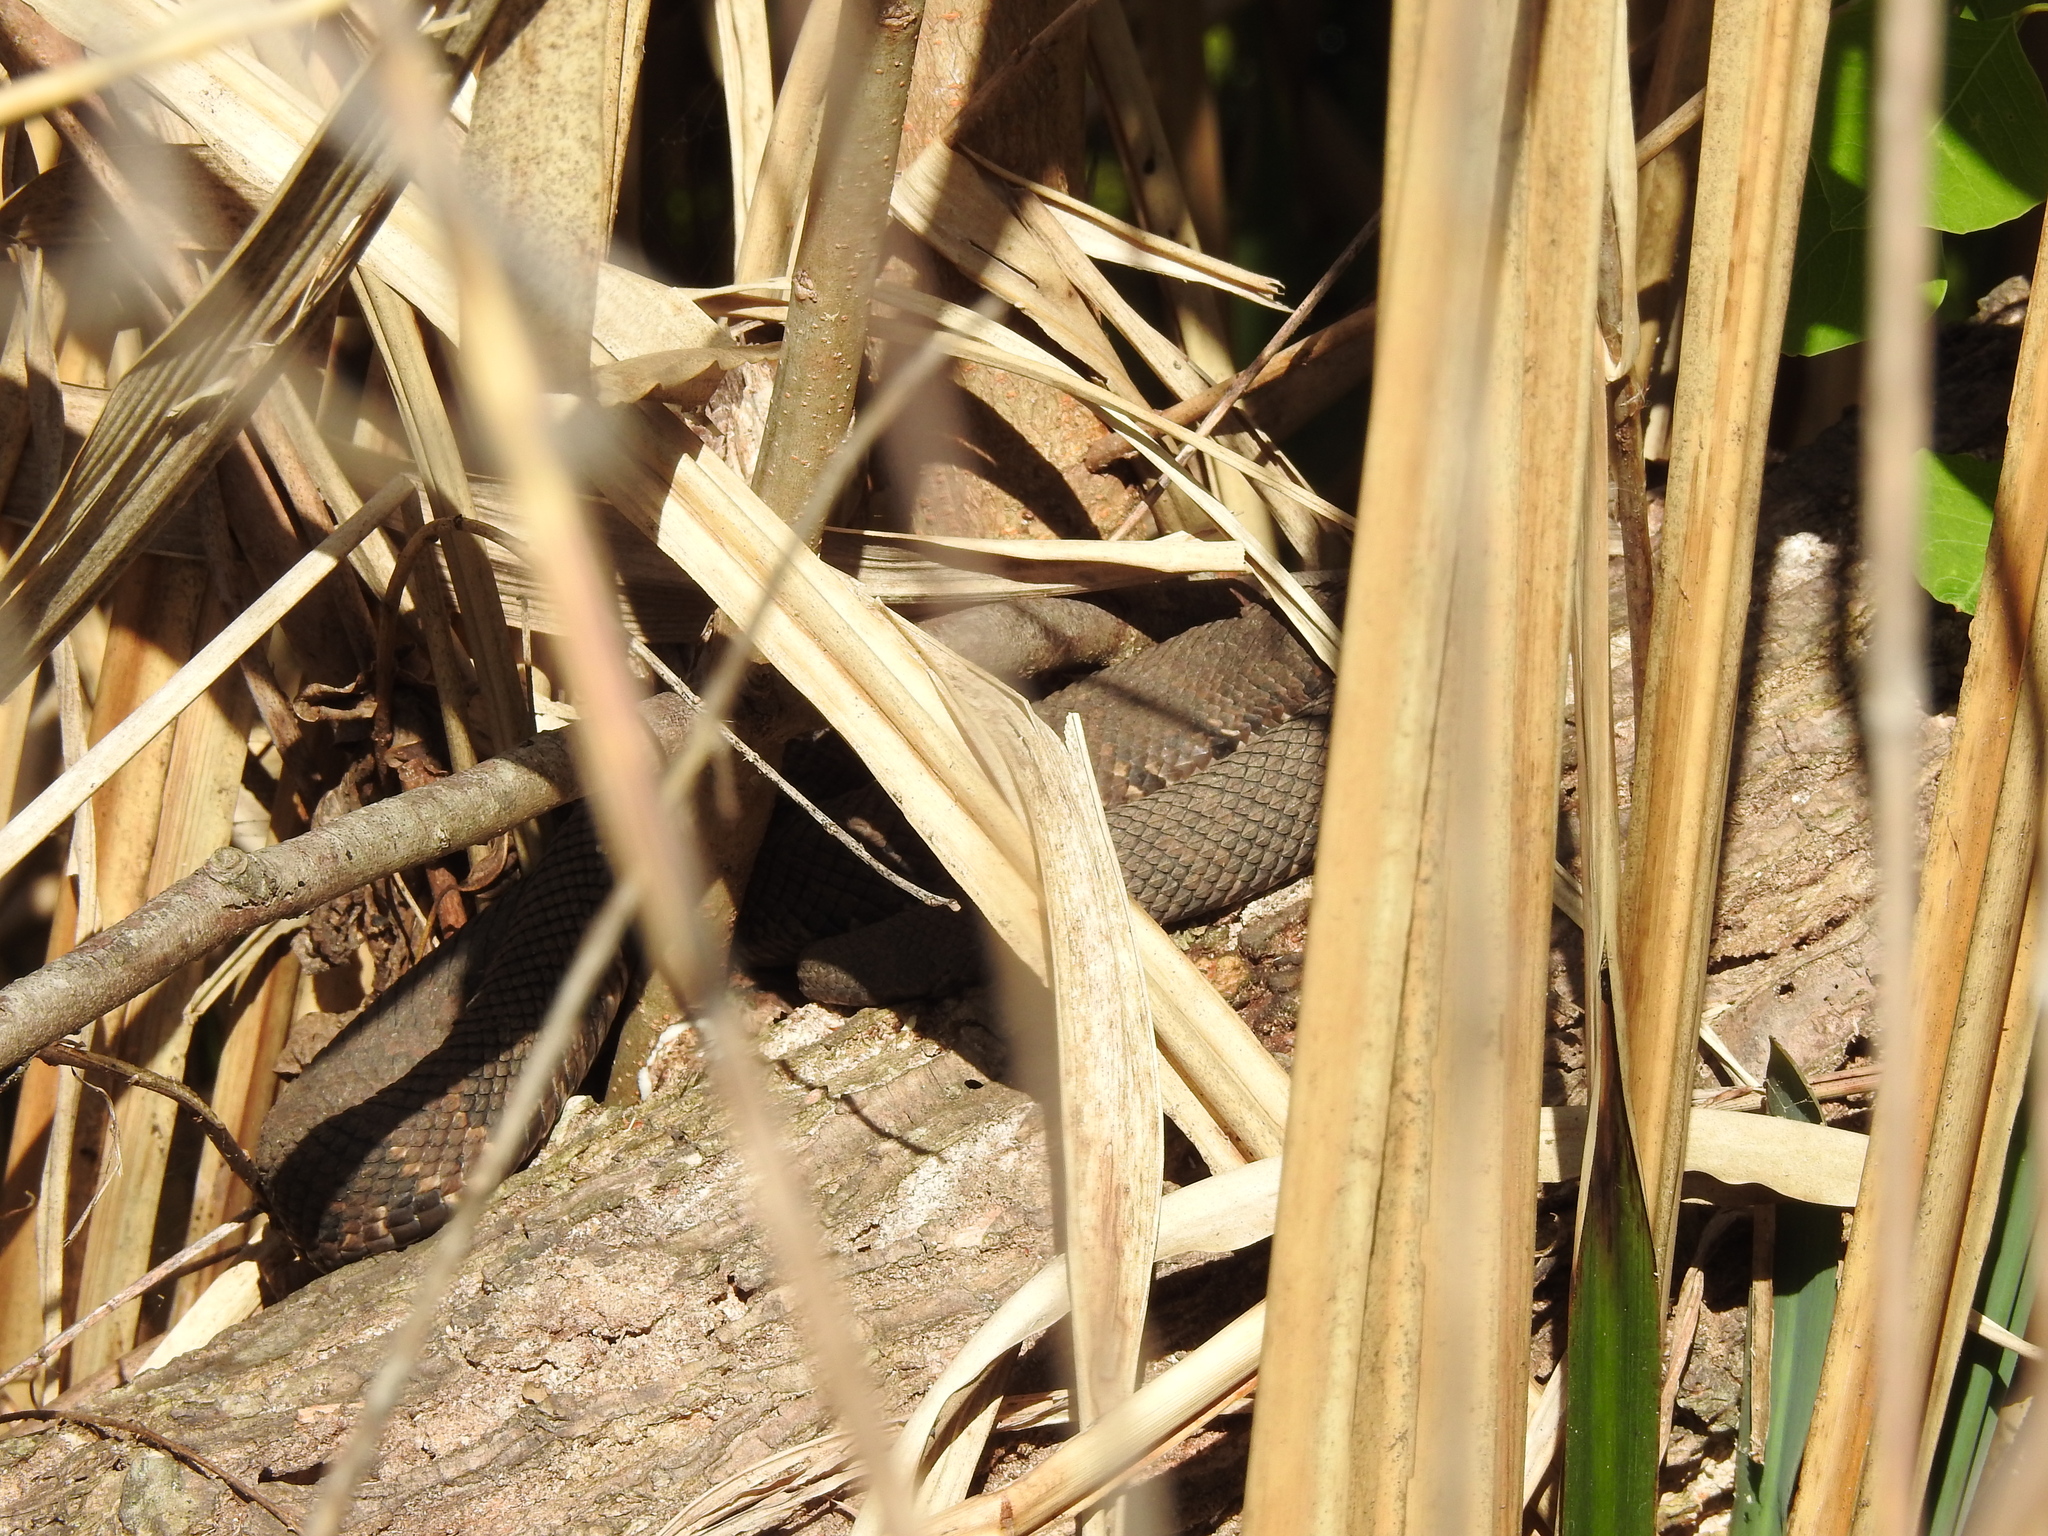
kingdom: Animalia
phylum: Chordata
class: Squamata
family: Viperidae
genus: Agkistrodon
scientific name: Agkistrodon piscivorus
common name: Cottonmouth
